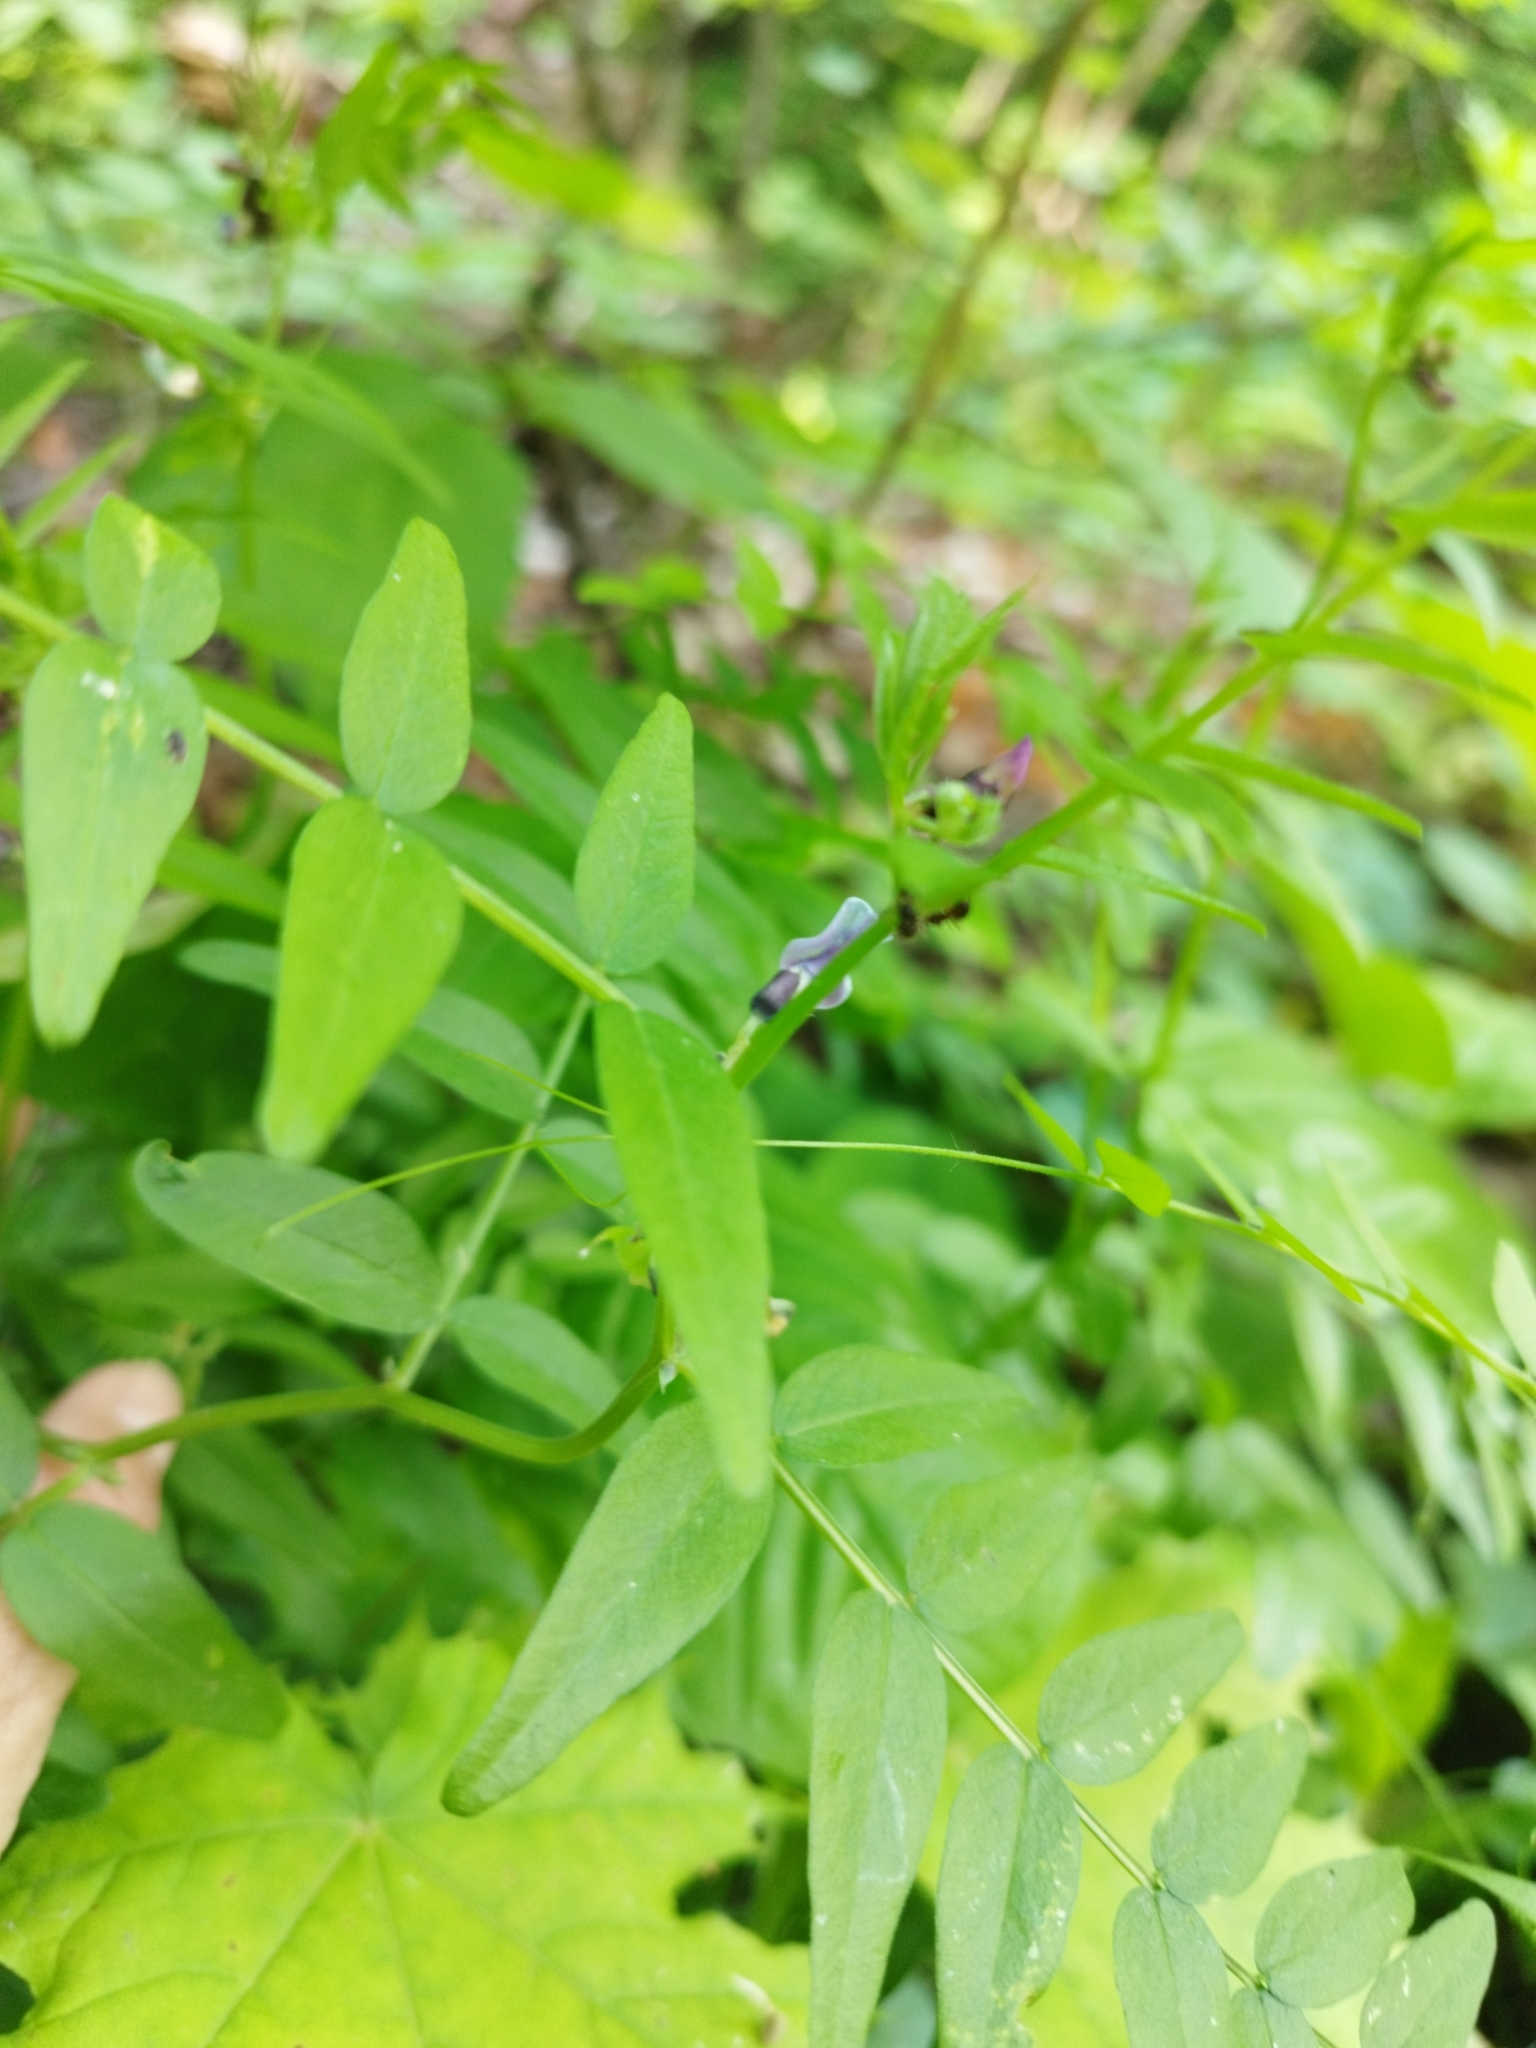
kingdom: Plantae
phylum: Tracheophyta
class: Magnoliopsida
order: Fabales
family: Fabaceae
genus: Vicia
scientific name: Vicia sepium
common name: Bush vetch
